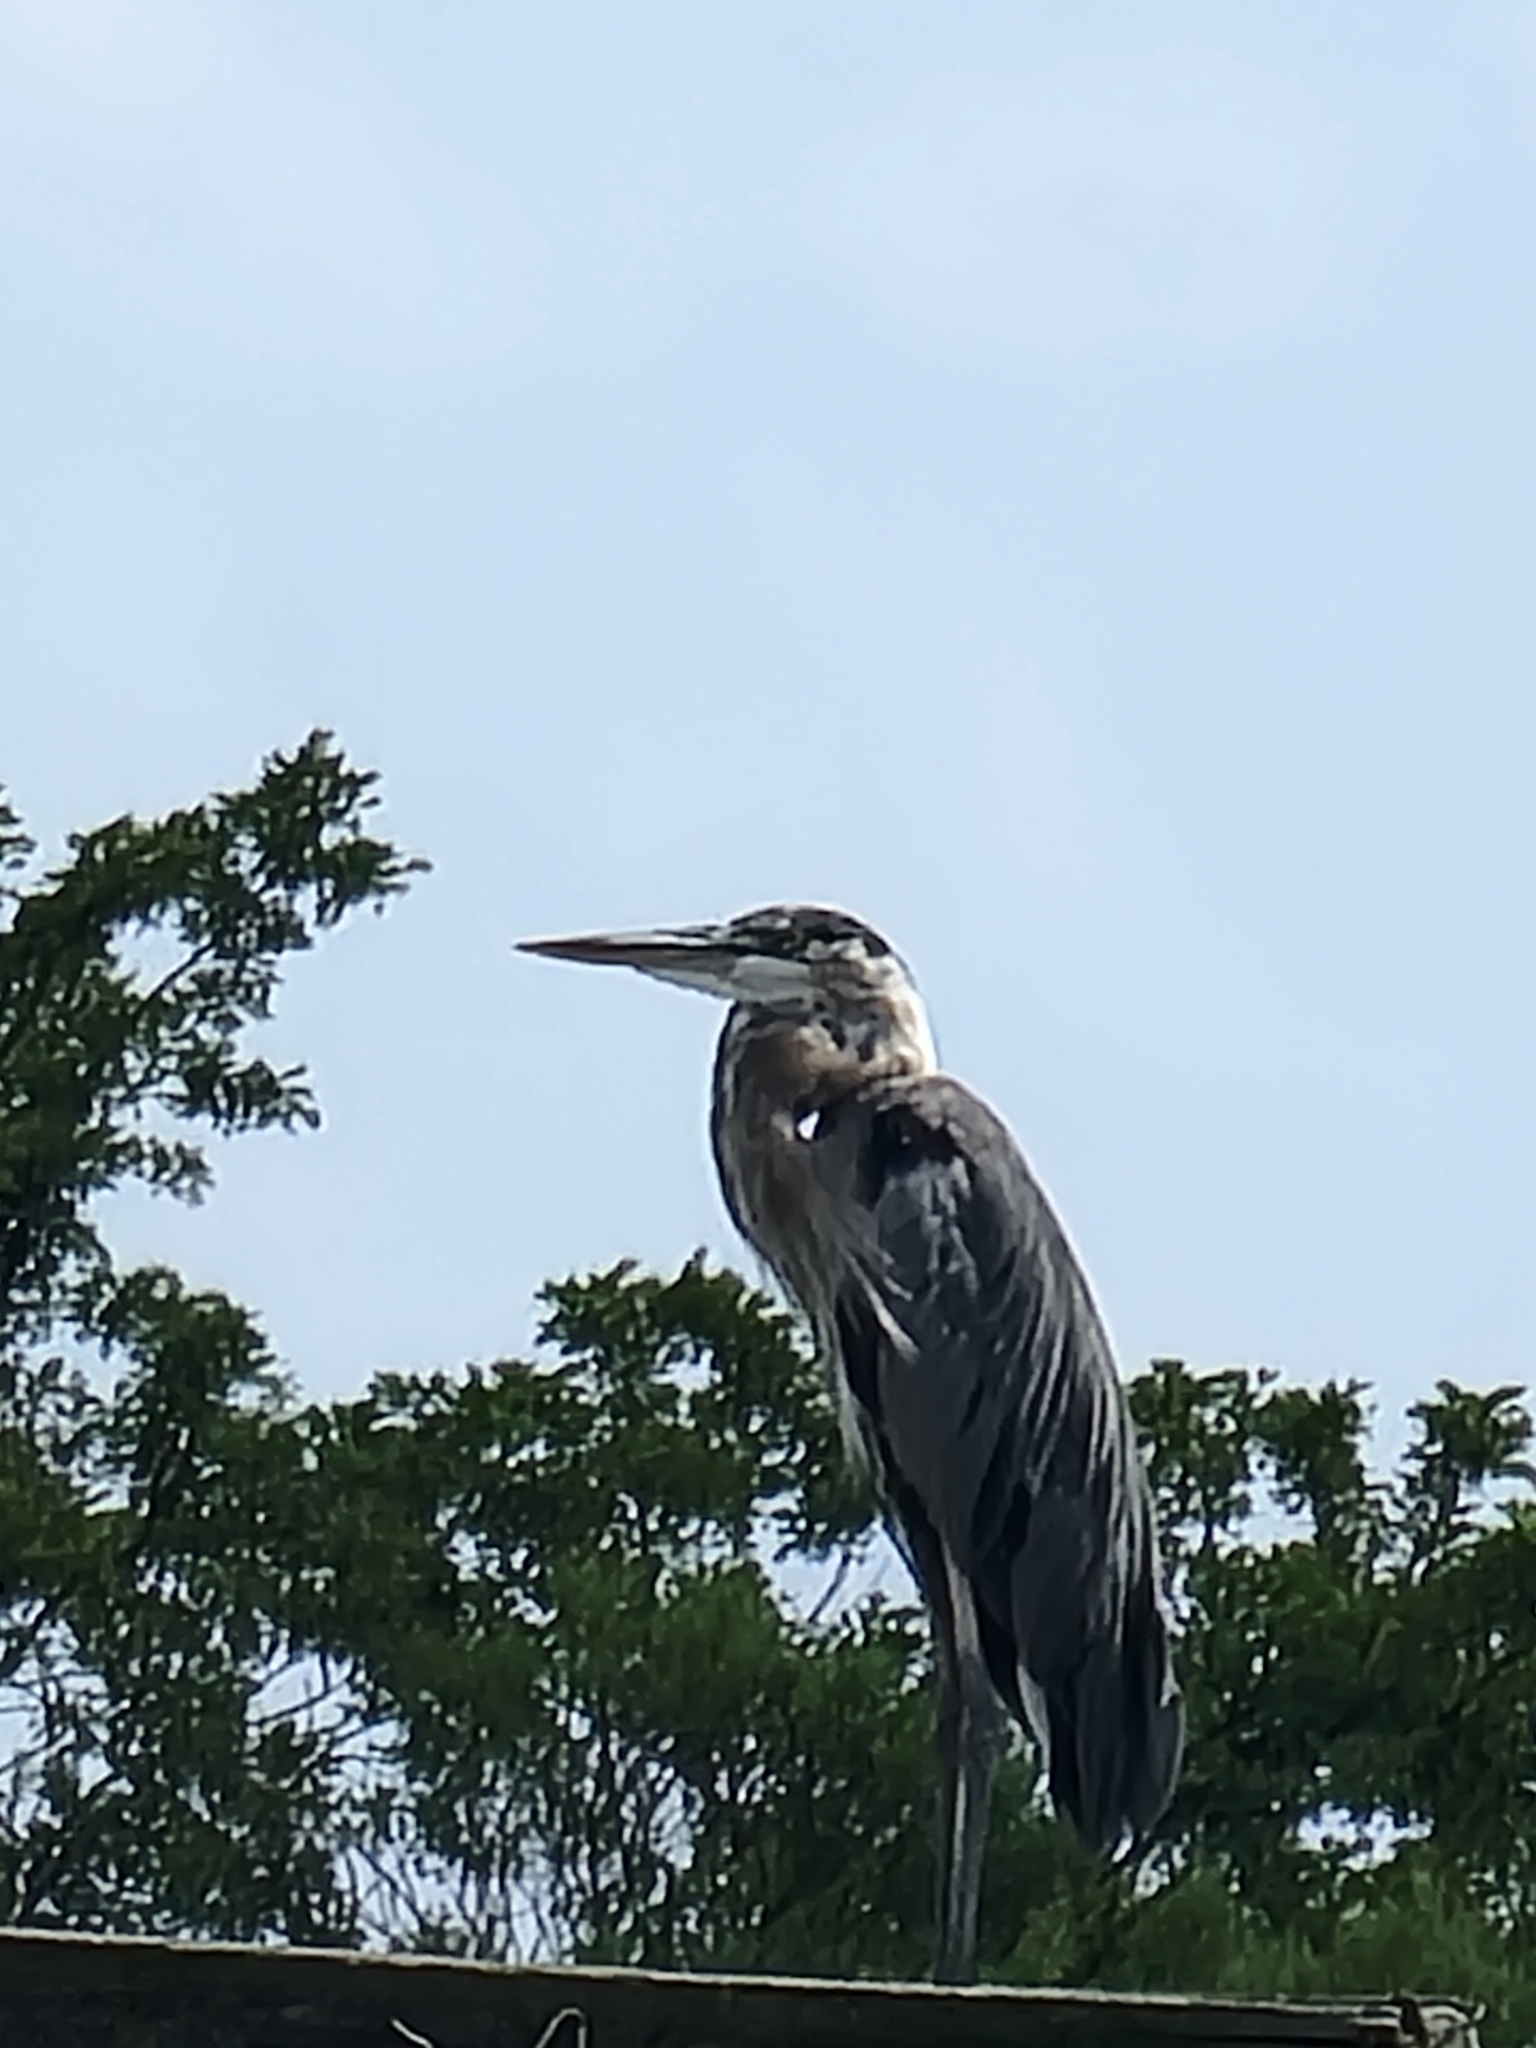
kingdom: Animalia
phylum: Chordata
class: Aves
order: Pelecaniformes
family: Ardeidae
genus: Ardea
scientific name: Ardea herodias
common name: Great blue heron
